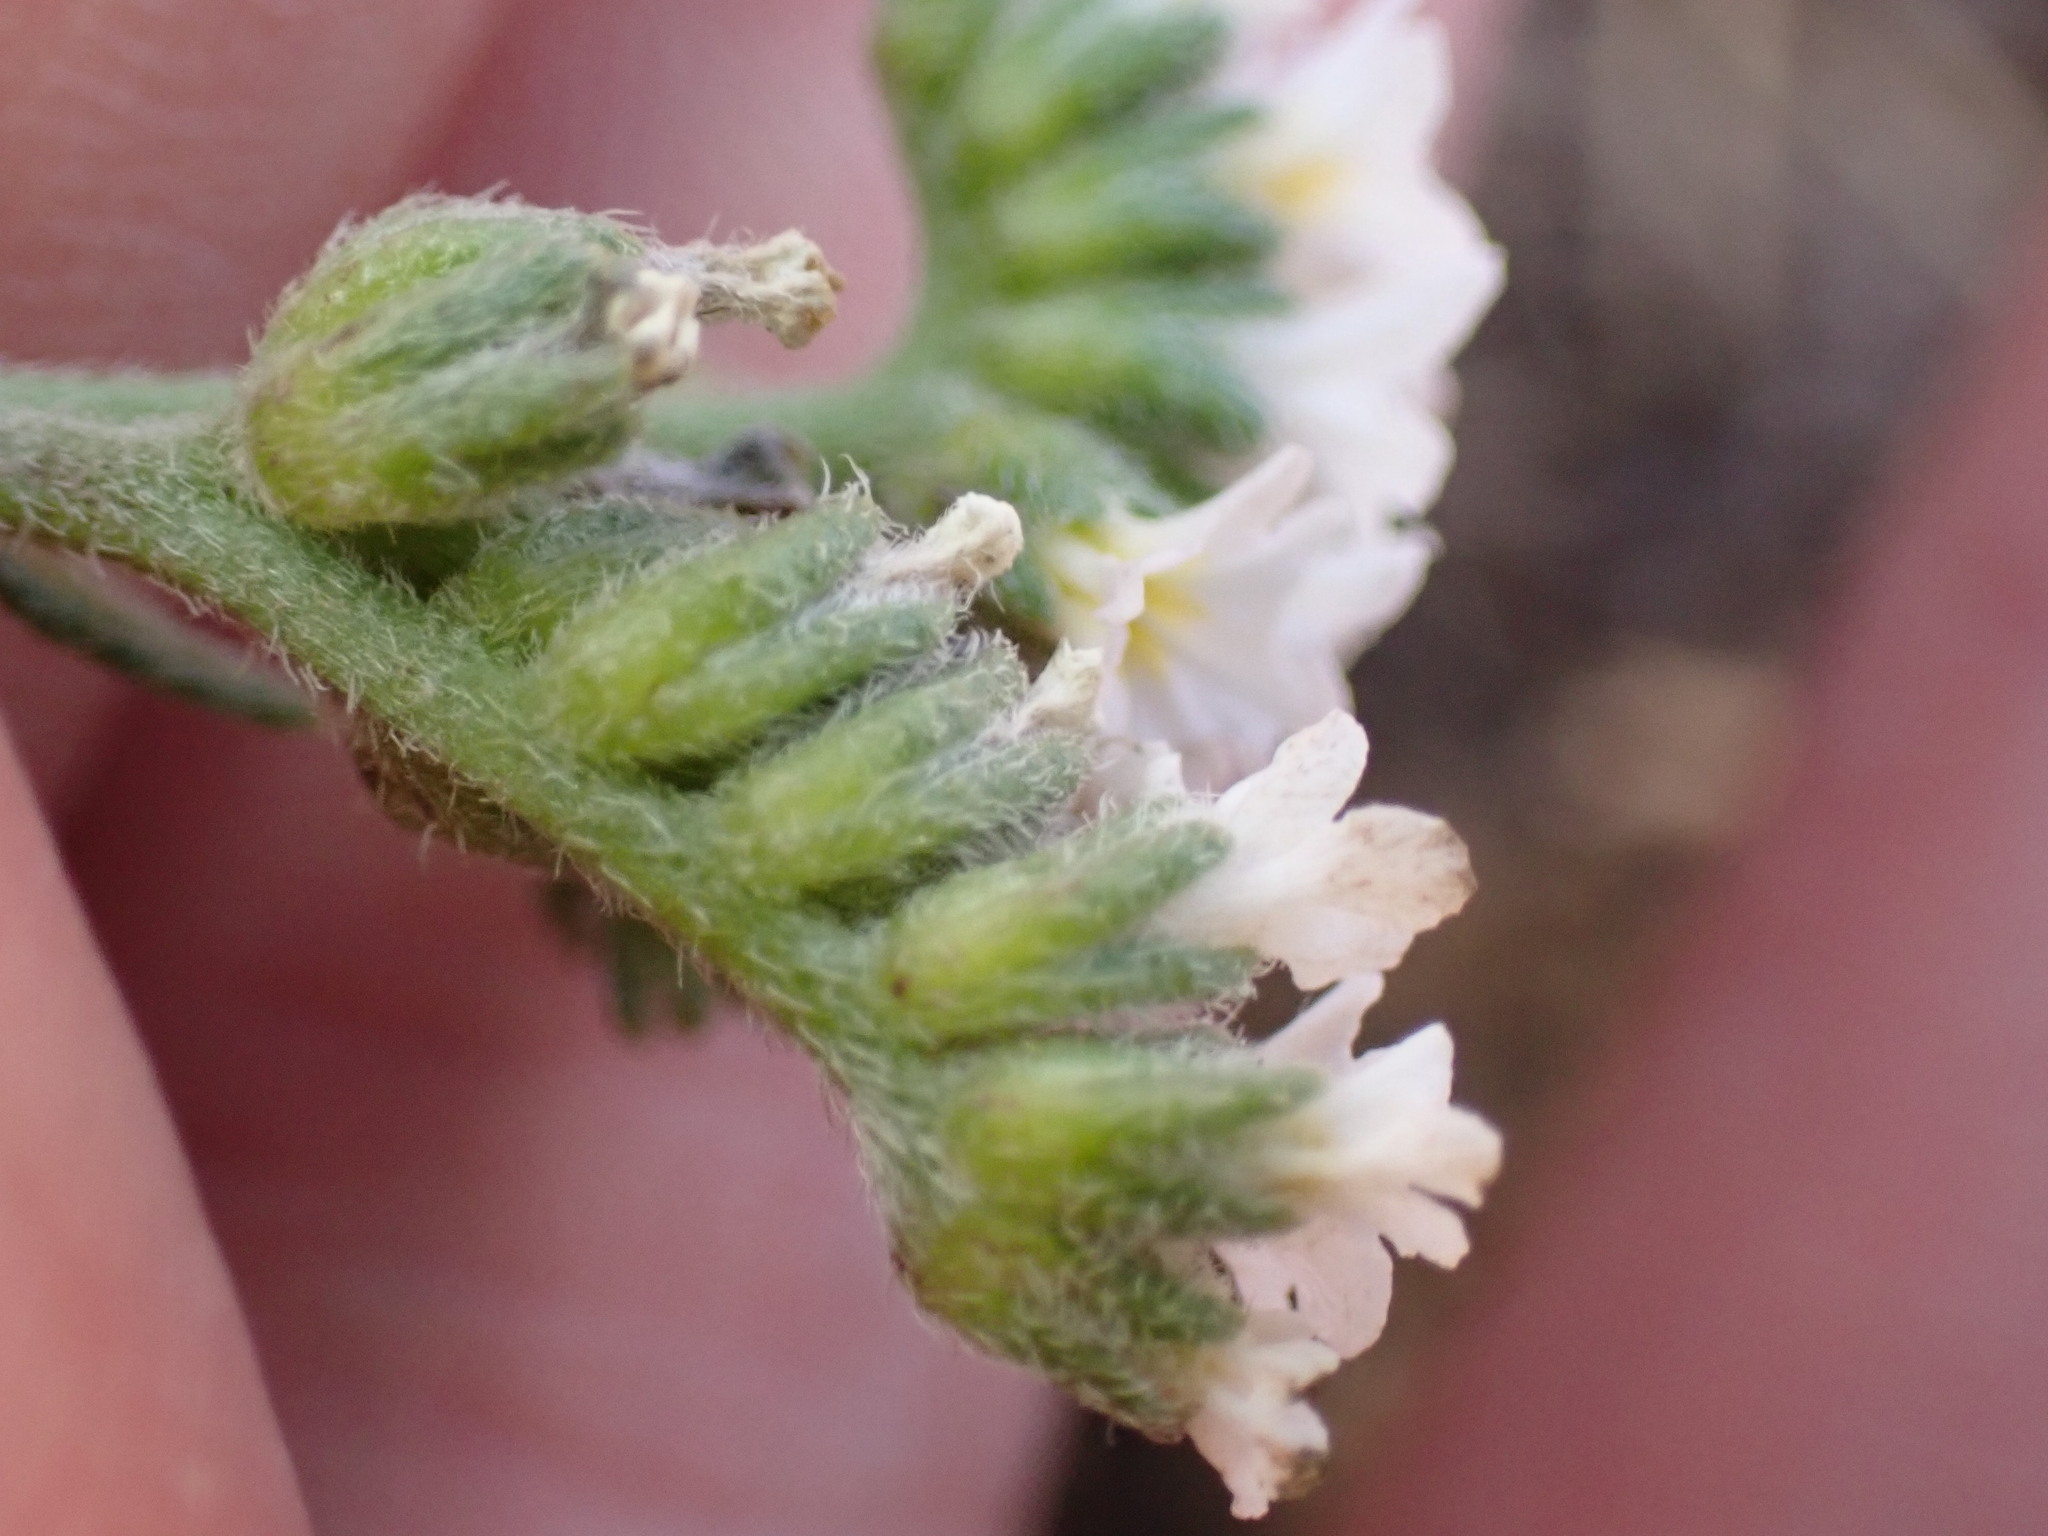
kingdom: Plantae
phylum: Tracheophyta
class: Magnoliopsida
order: Boraginales
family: Heliotropiaceae
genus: Heliotropium
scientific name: Heliotropium ramosissimum
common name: Wavy heliotrope
